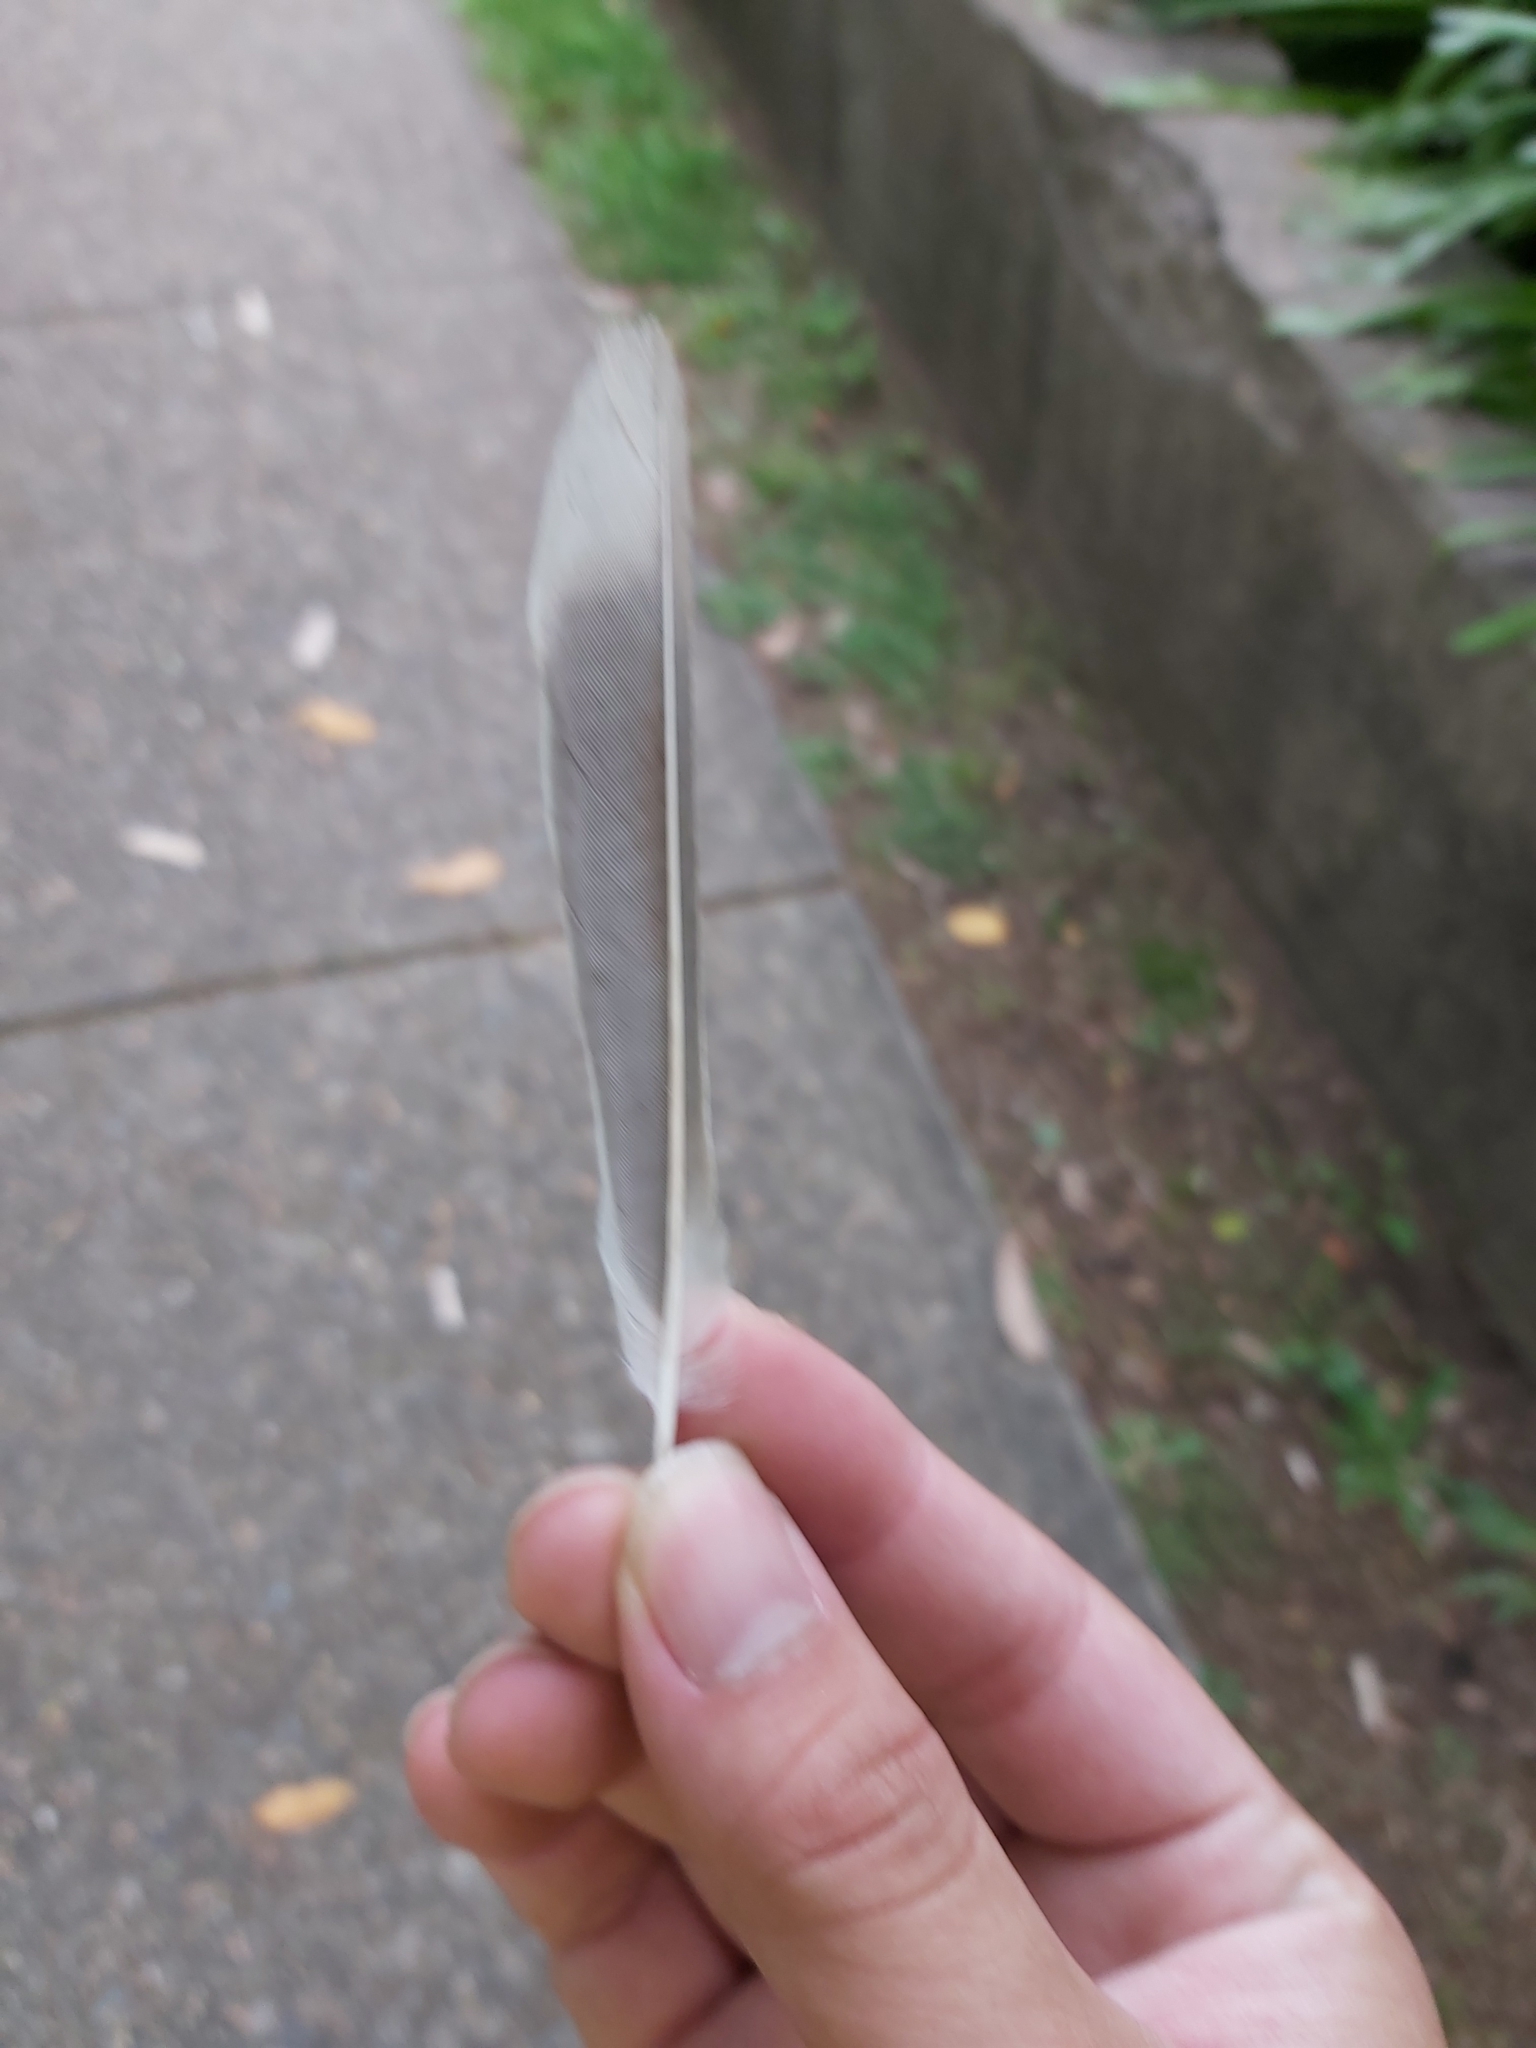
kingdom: Animalia
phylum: Chordata
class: Aves
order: Passeriformes
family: Meliphagidae
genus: Manorina
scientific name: Manorina melanocephala
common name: Noisy miner
